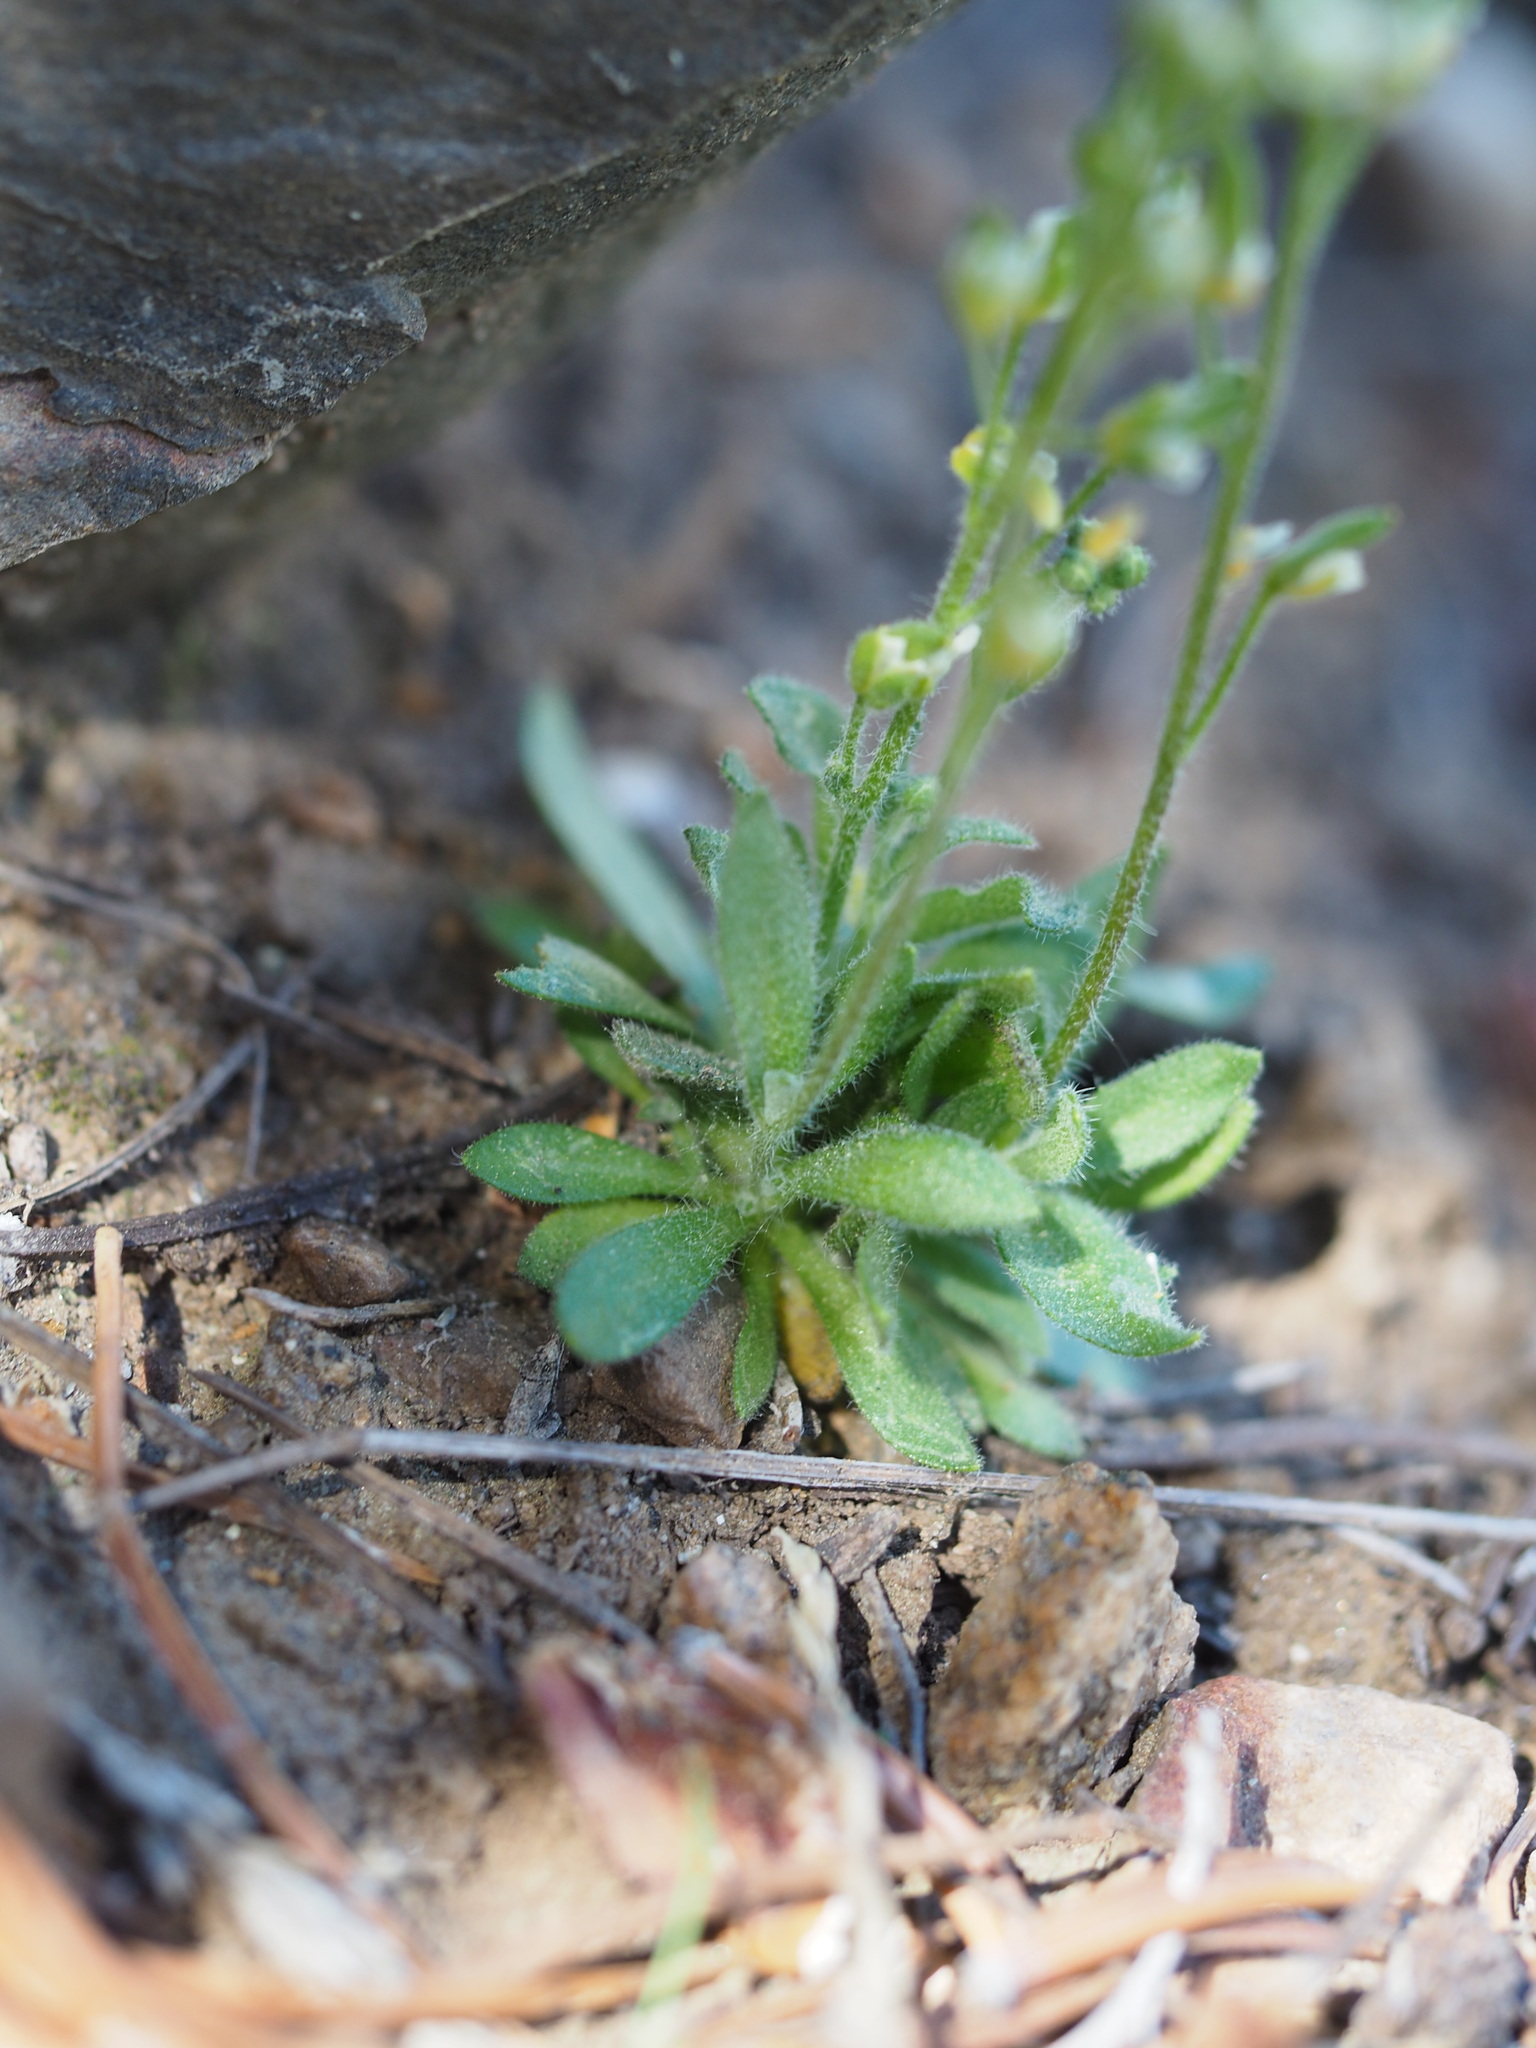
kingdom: Plantae
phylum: Tracheophyta
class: Magnoliopsida
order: Brassicales
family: Brassicaceae
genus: Draba
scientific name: Draba californica
